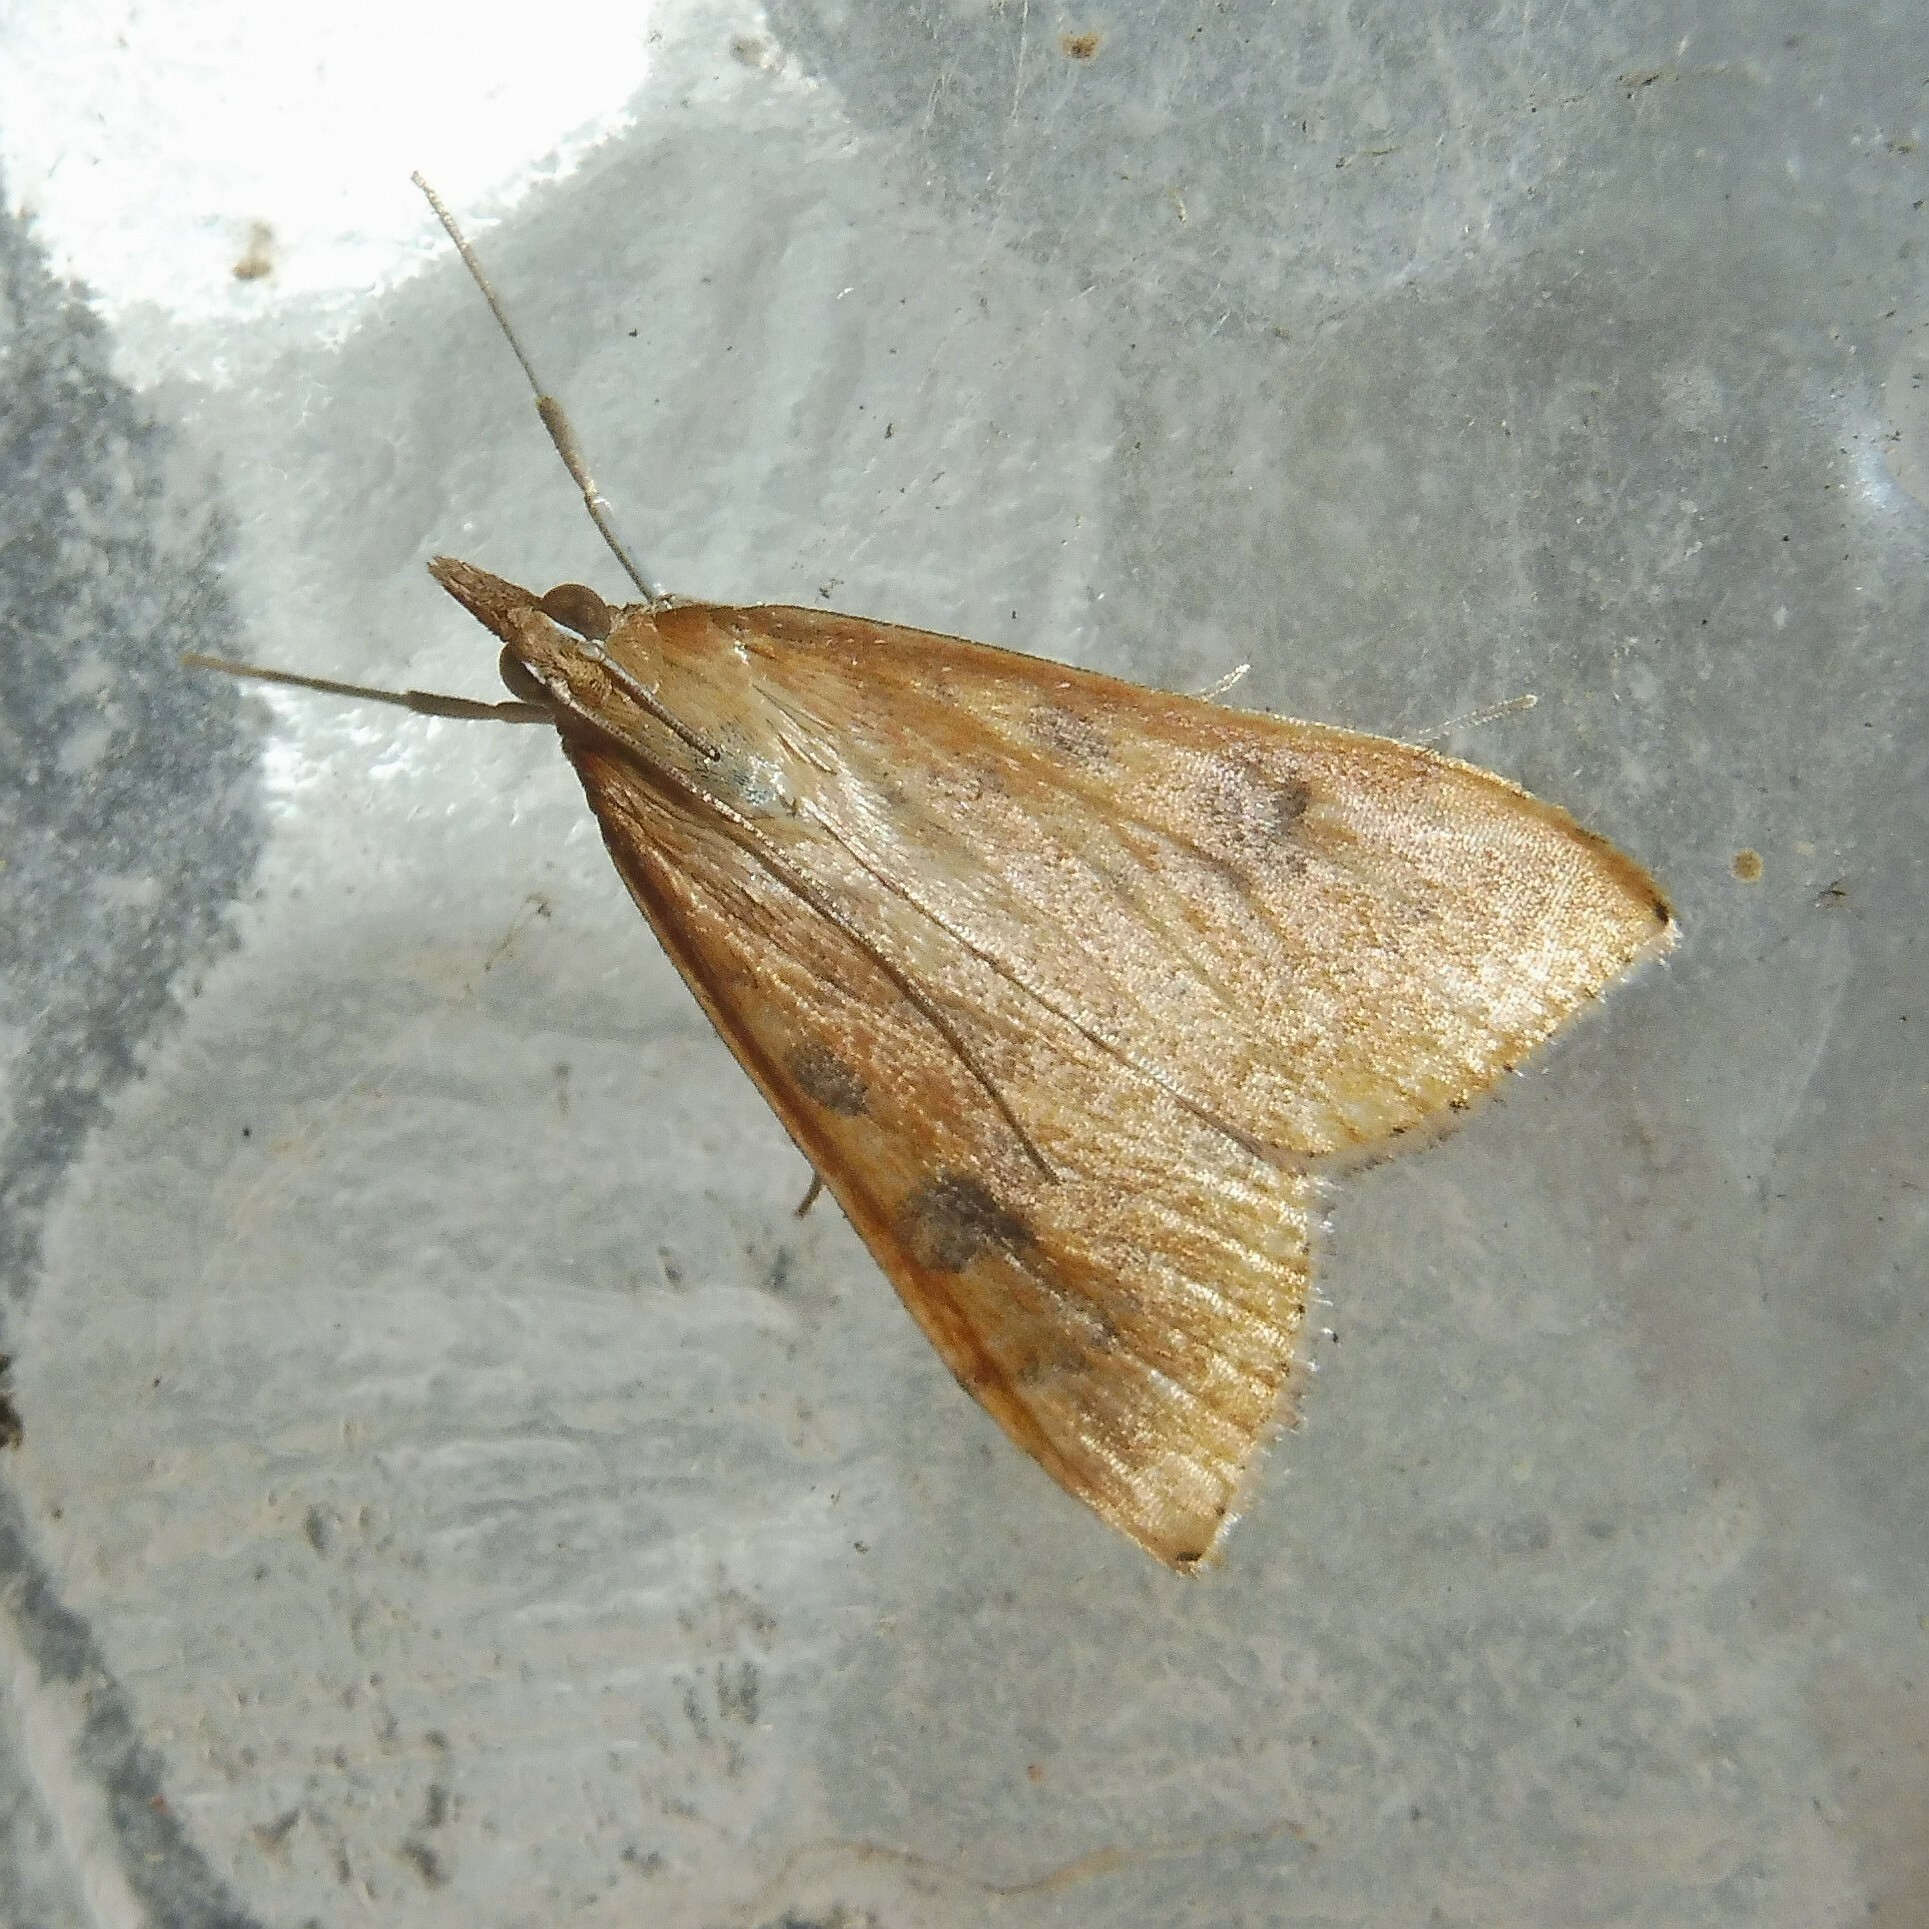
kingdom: Animalia
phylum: Arthropoda
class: Insecta
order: Lepidoptera
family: Crambidae
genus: Udea
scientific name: Udea ferrugalis
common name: Rusty dot
